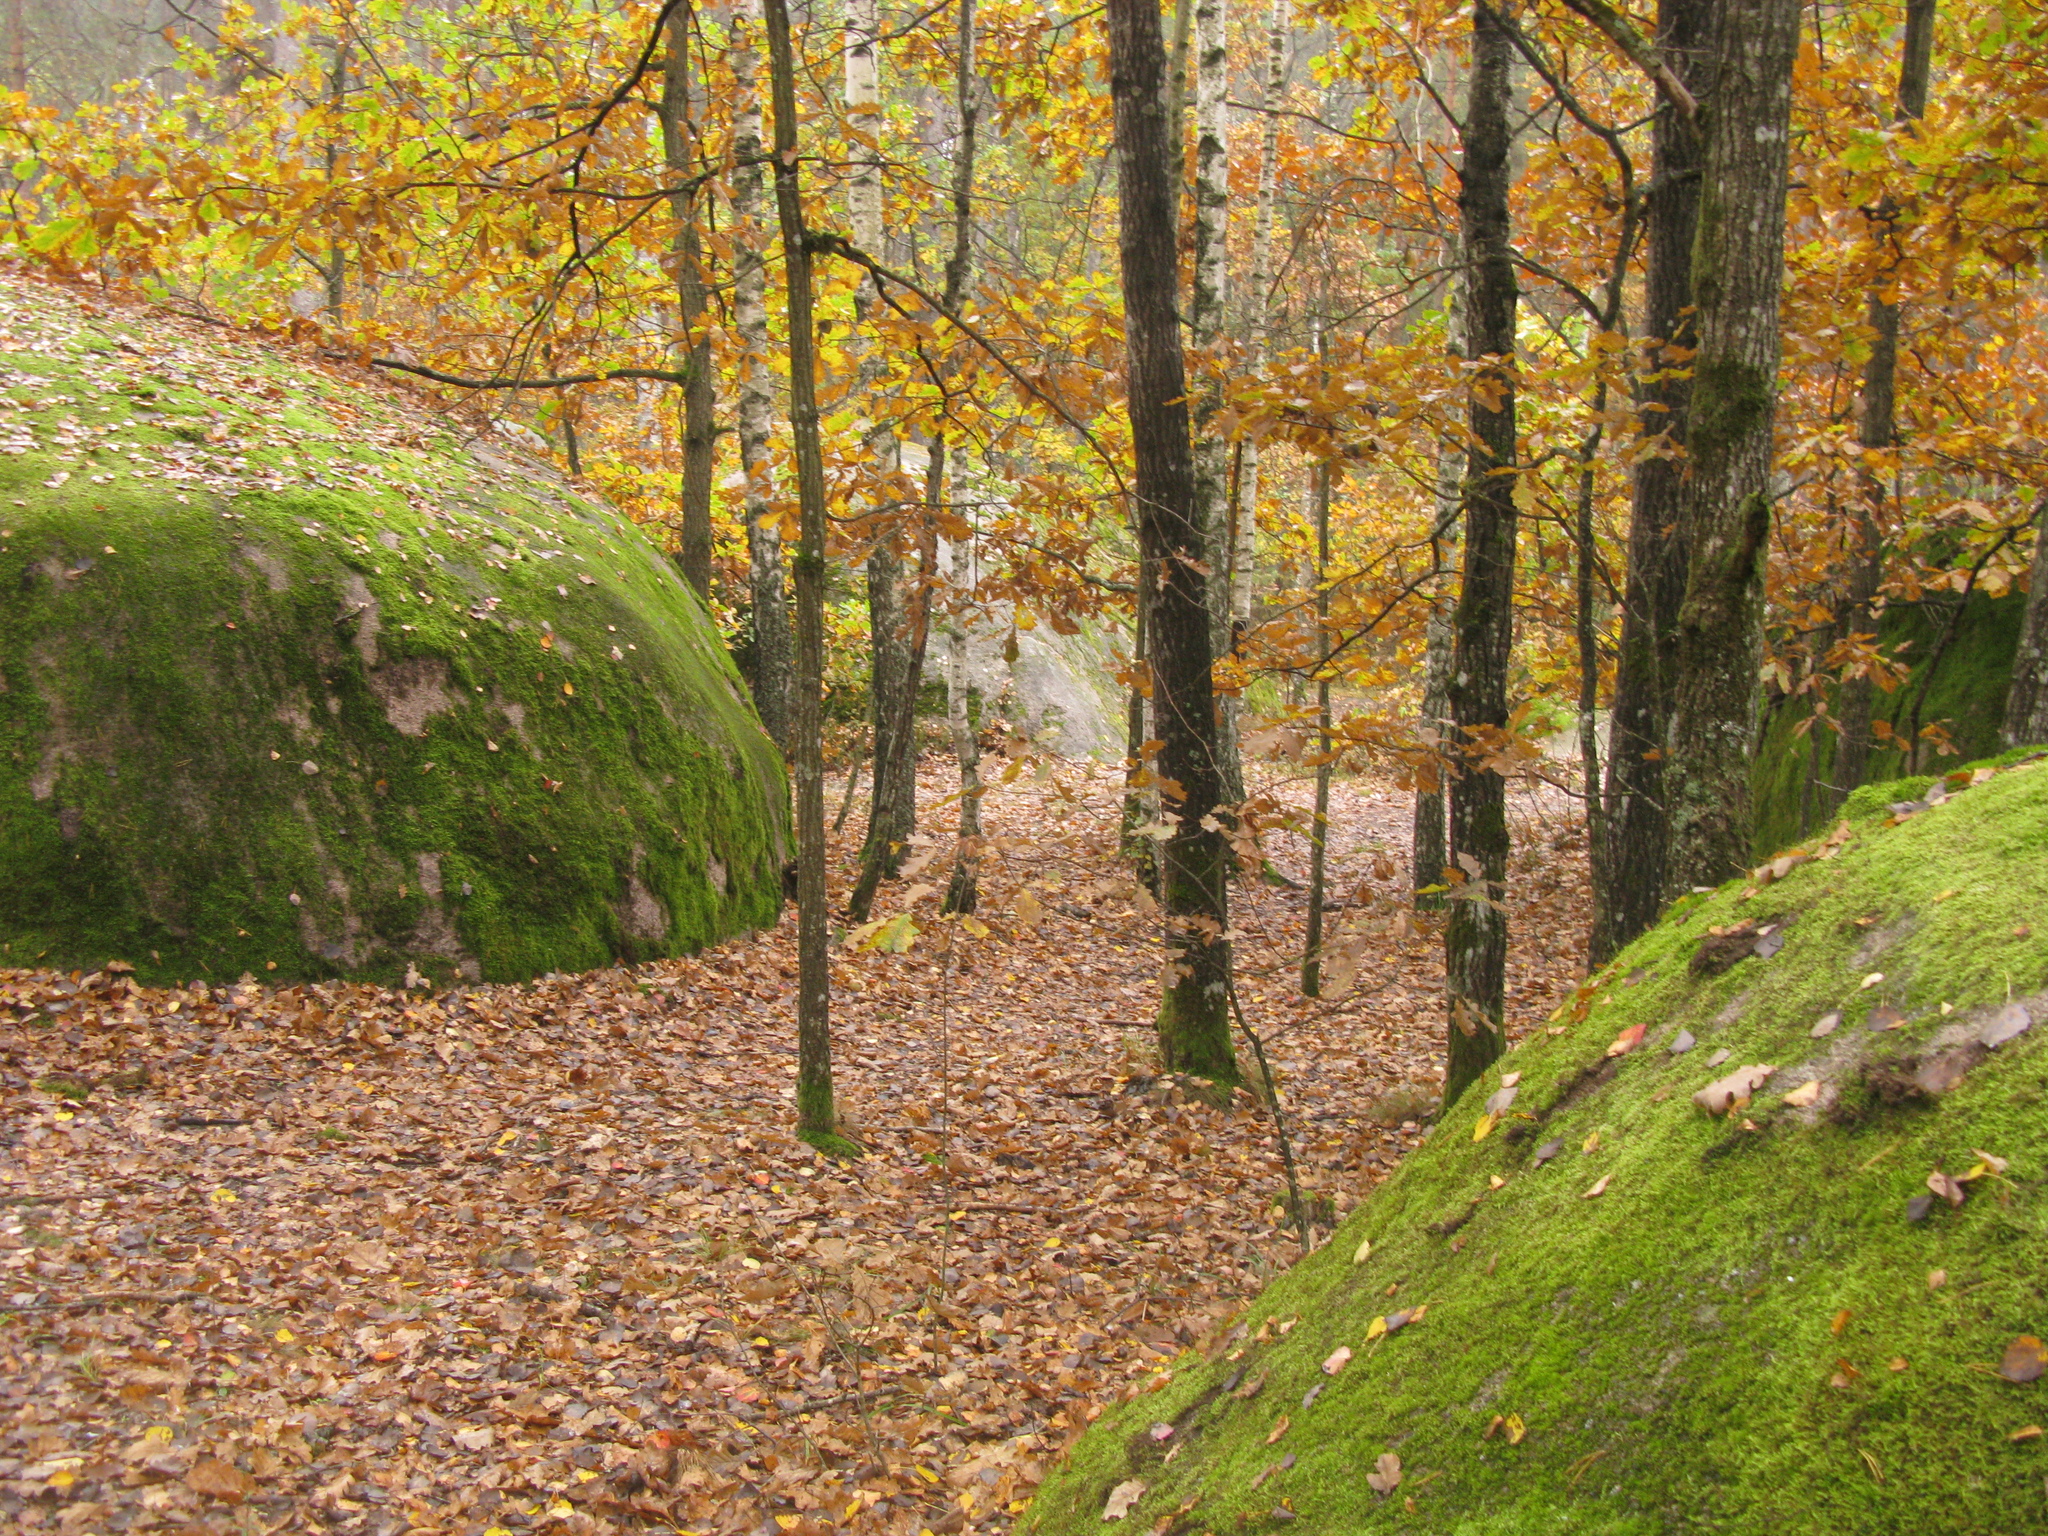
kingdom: Plantae
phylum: Tracheophyta
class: Magnoliopsida
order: Fagales
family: Fagaceae
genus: Quercus
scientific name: Quercus robur
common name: Pedunculate oak
